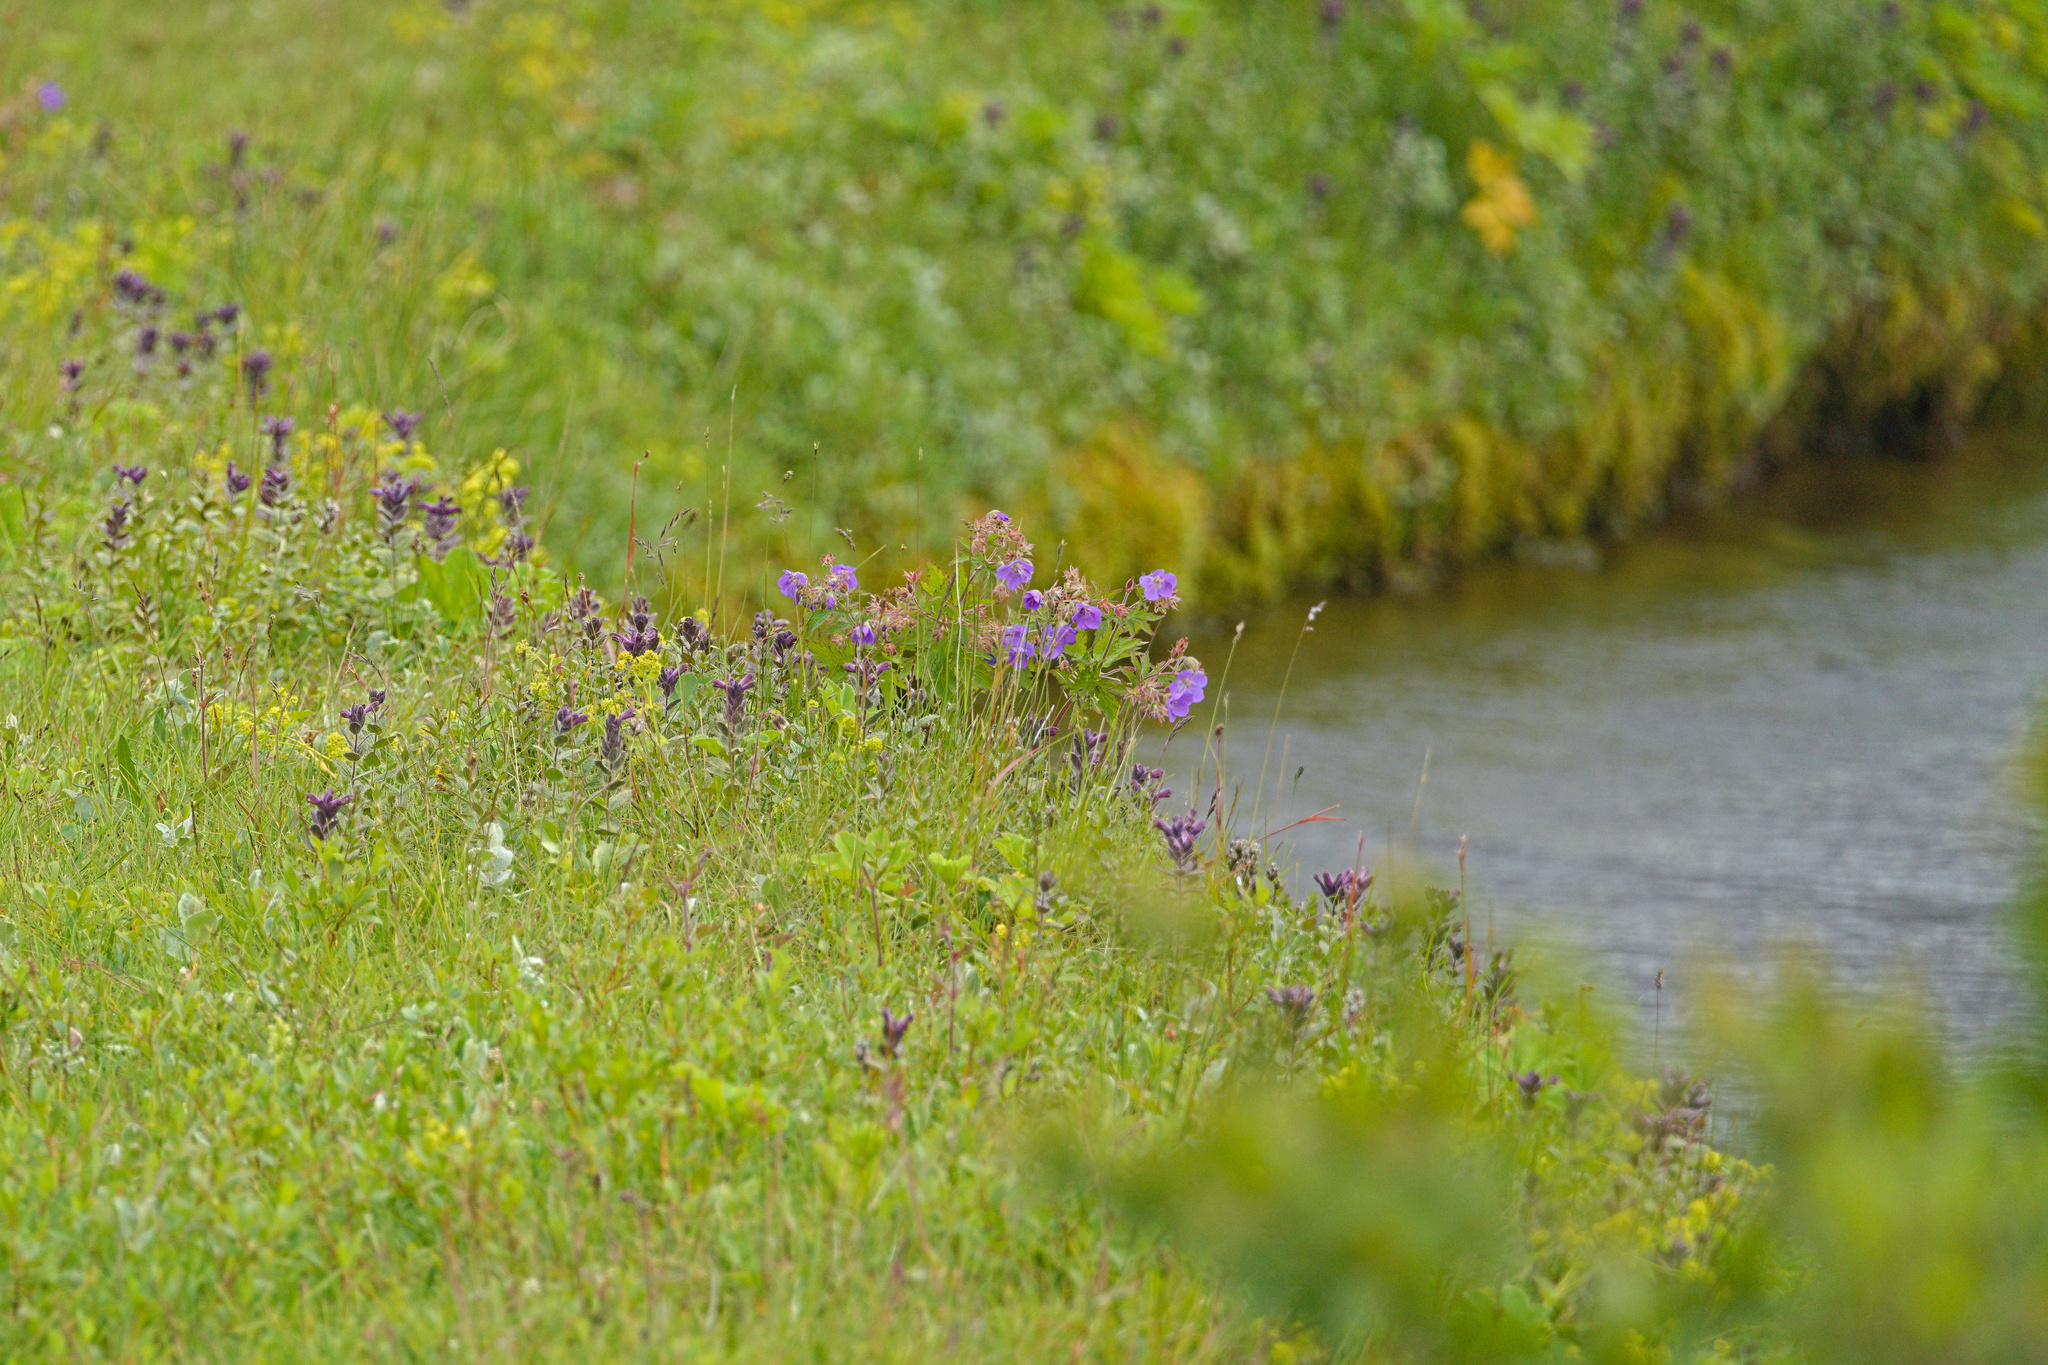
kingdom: Plantae
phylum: Tracheophyta
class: Magnoliopsida
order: Geraniales
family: Geraniaceae
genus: Geranium
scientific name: Geranium sylvaticum
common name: Wood crane's-bill
